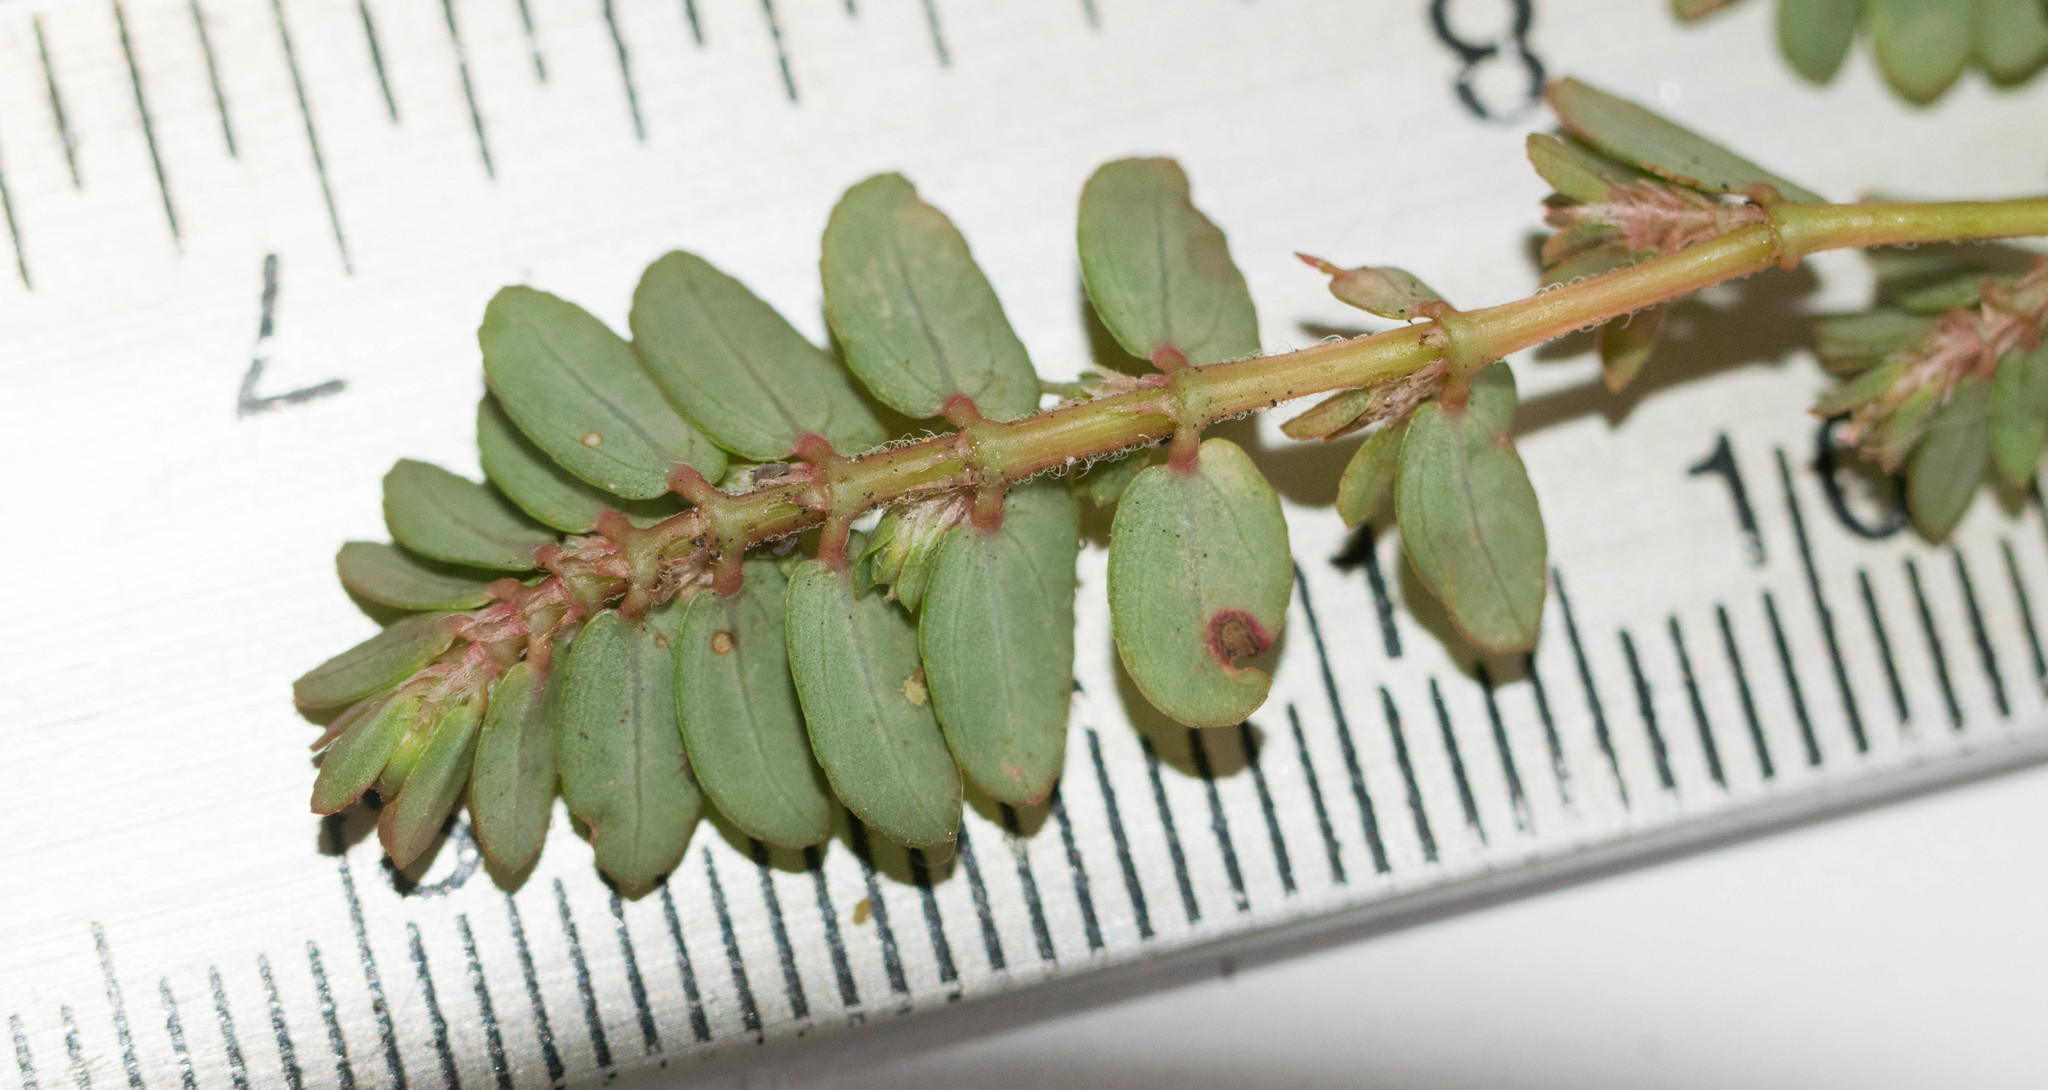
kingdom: Plantae
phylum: Tracheophyta
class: Magnoliopsida
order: Malpighiales
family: Euphorbiaceae
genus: Euphorbia
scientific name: Euphorbia thymifolia
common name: Gulf sandmat
